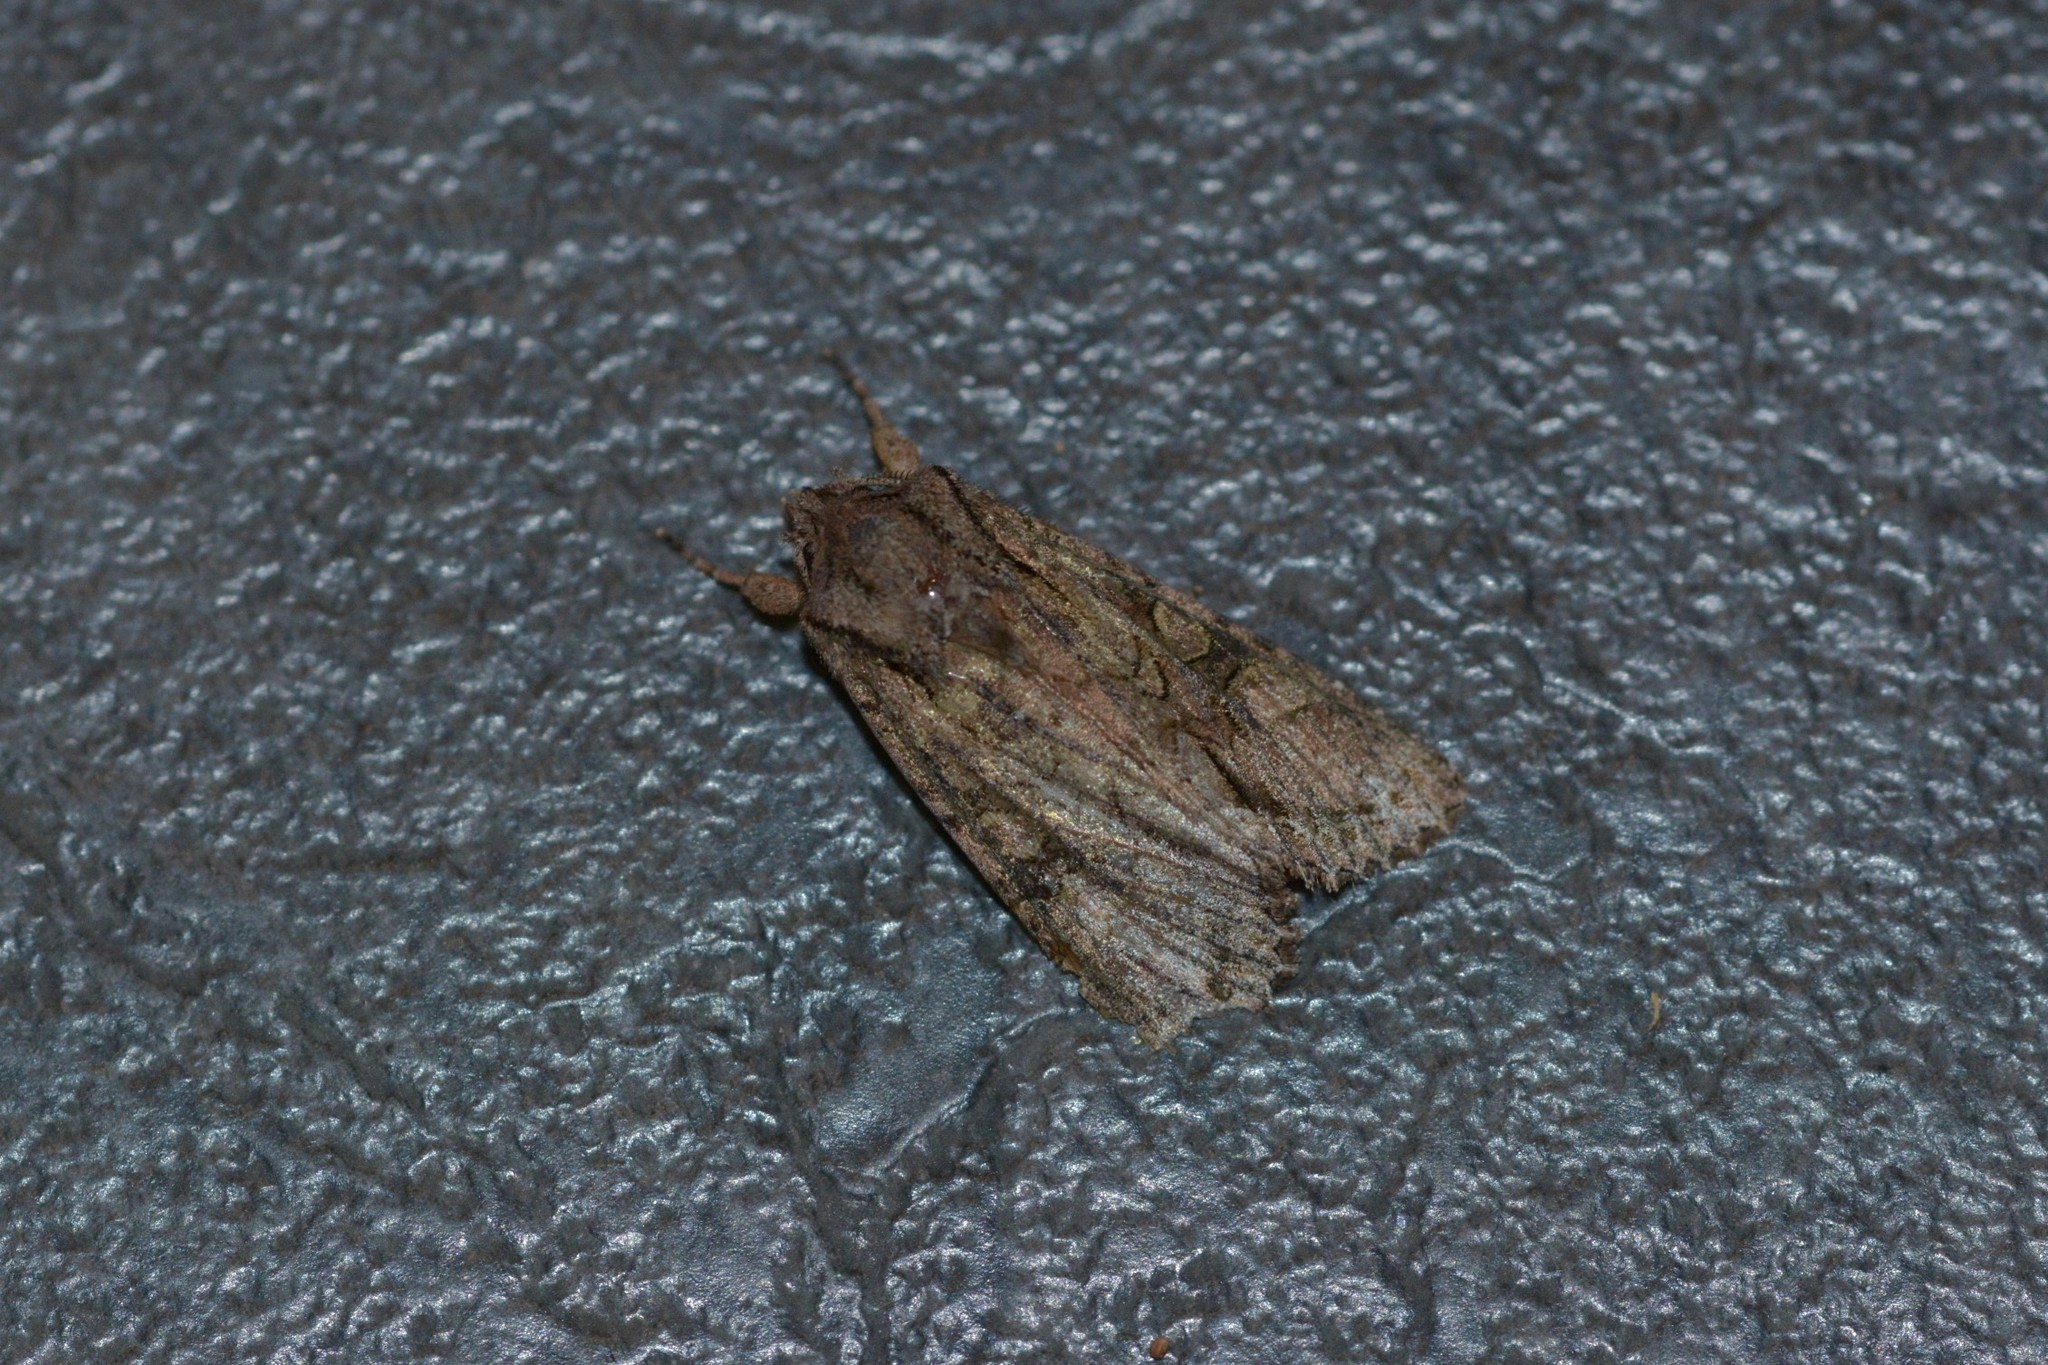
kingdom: Animalia
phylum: Arthropoda
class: Insecta
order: Lepidoptera
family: Noctuidae
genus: Ichneutica
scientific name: Ichneutica mutans
